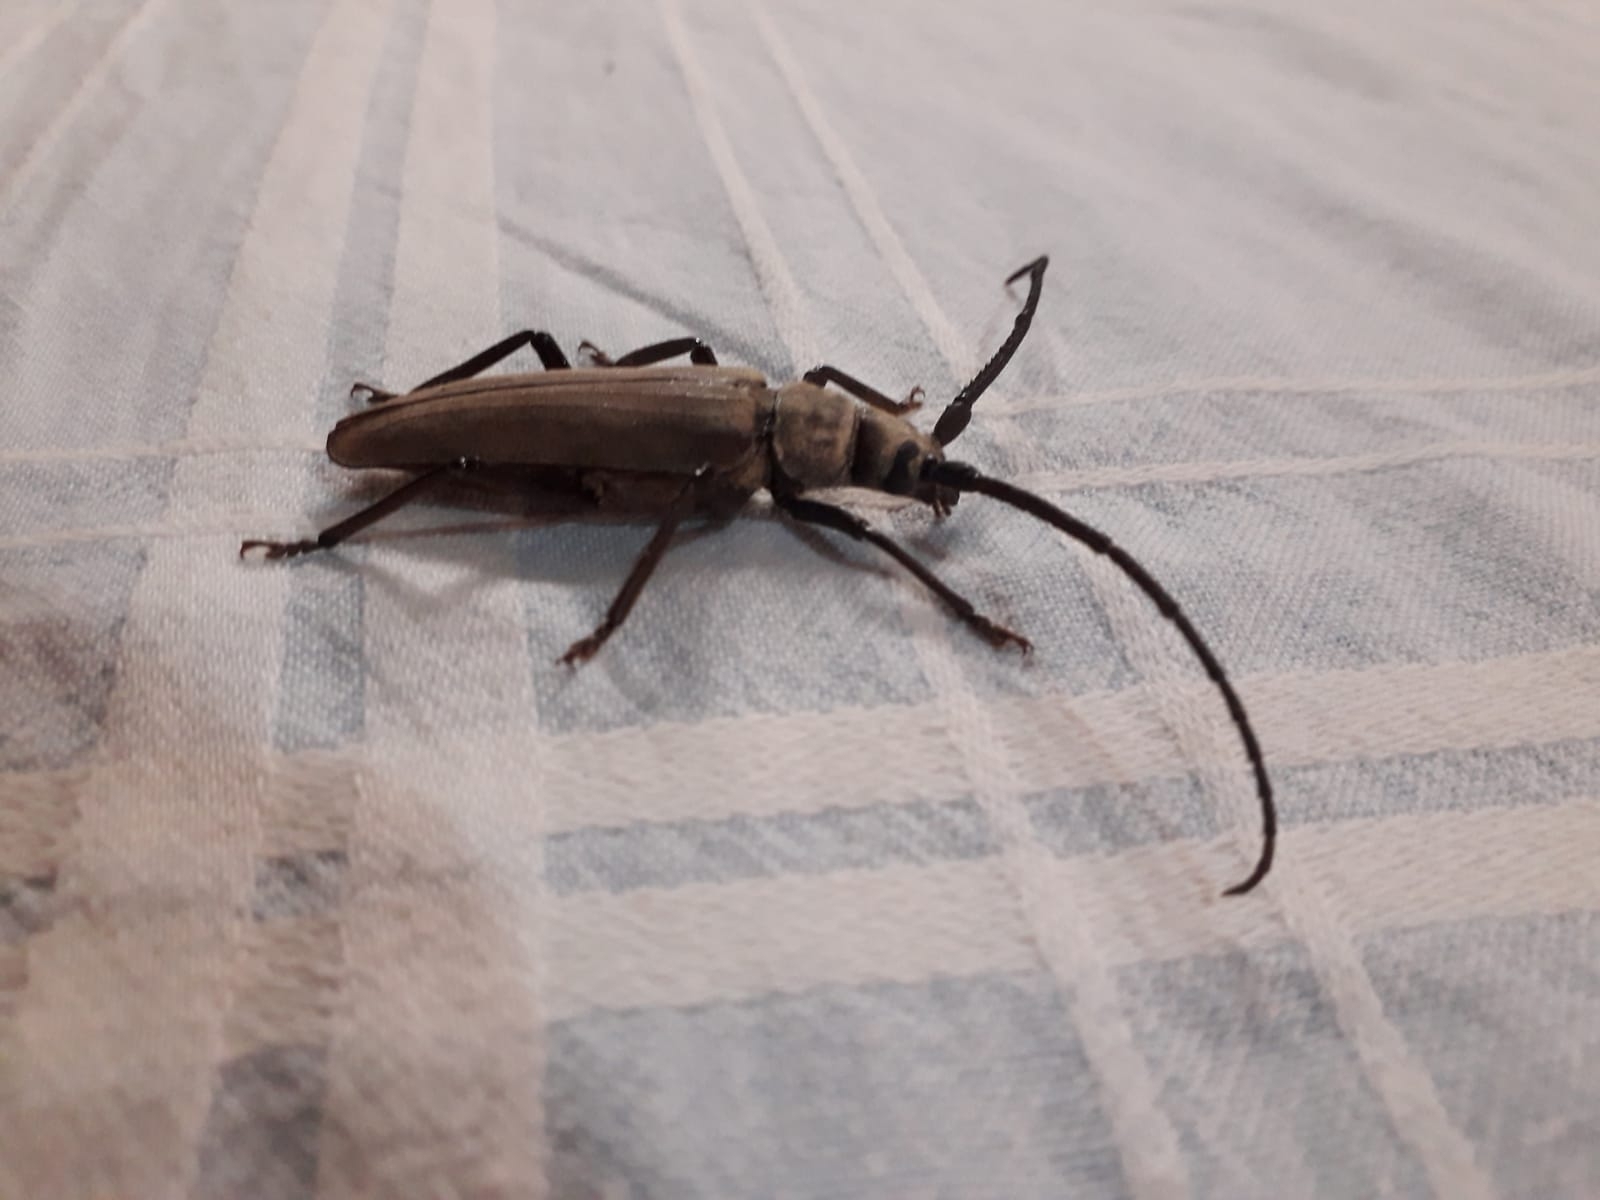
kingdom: Animalia
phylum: Arthropoda
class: Insecta
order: Coleoptera
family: Cerambycidae
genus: Aegosoma
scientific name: Aegosoma scabricorne
